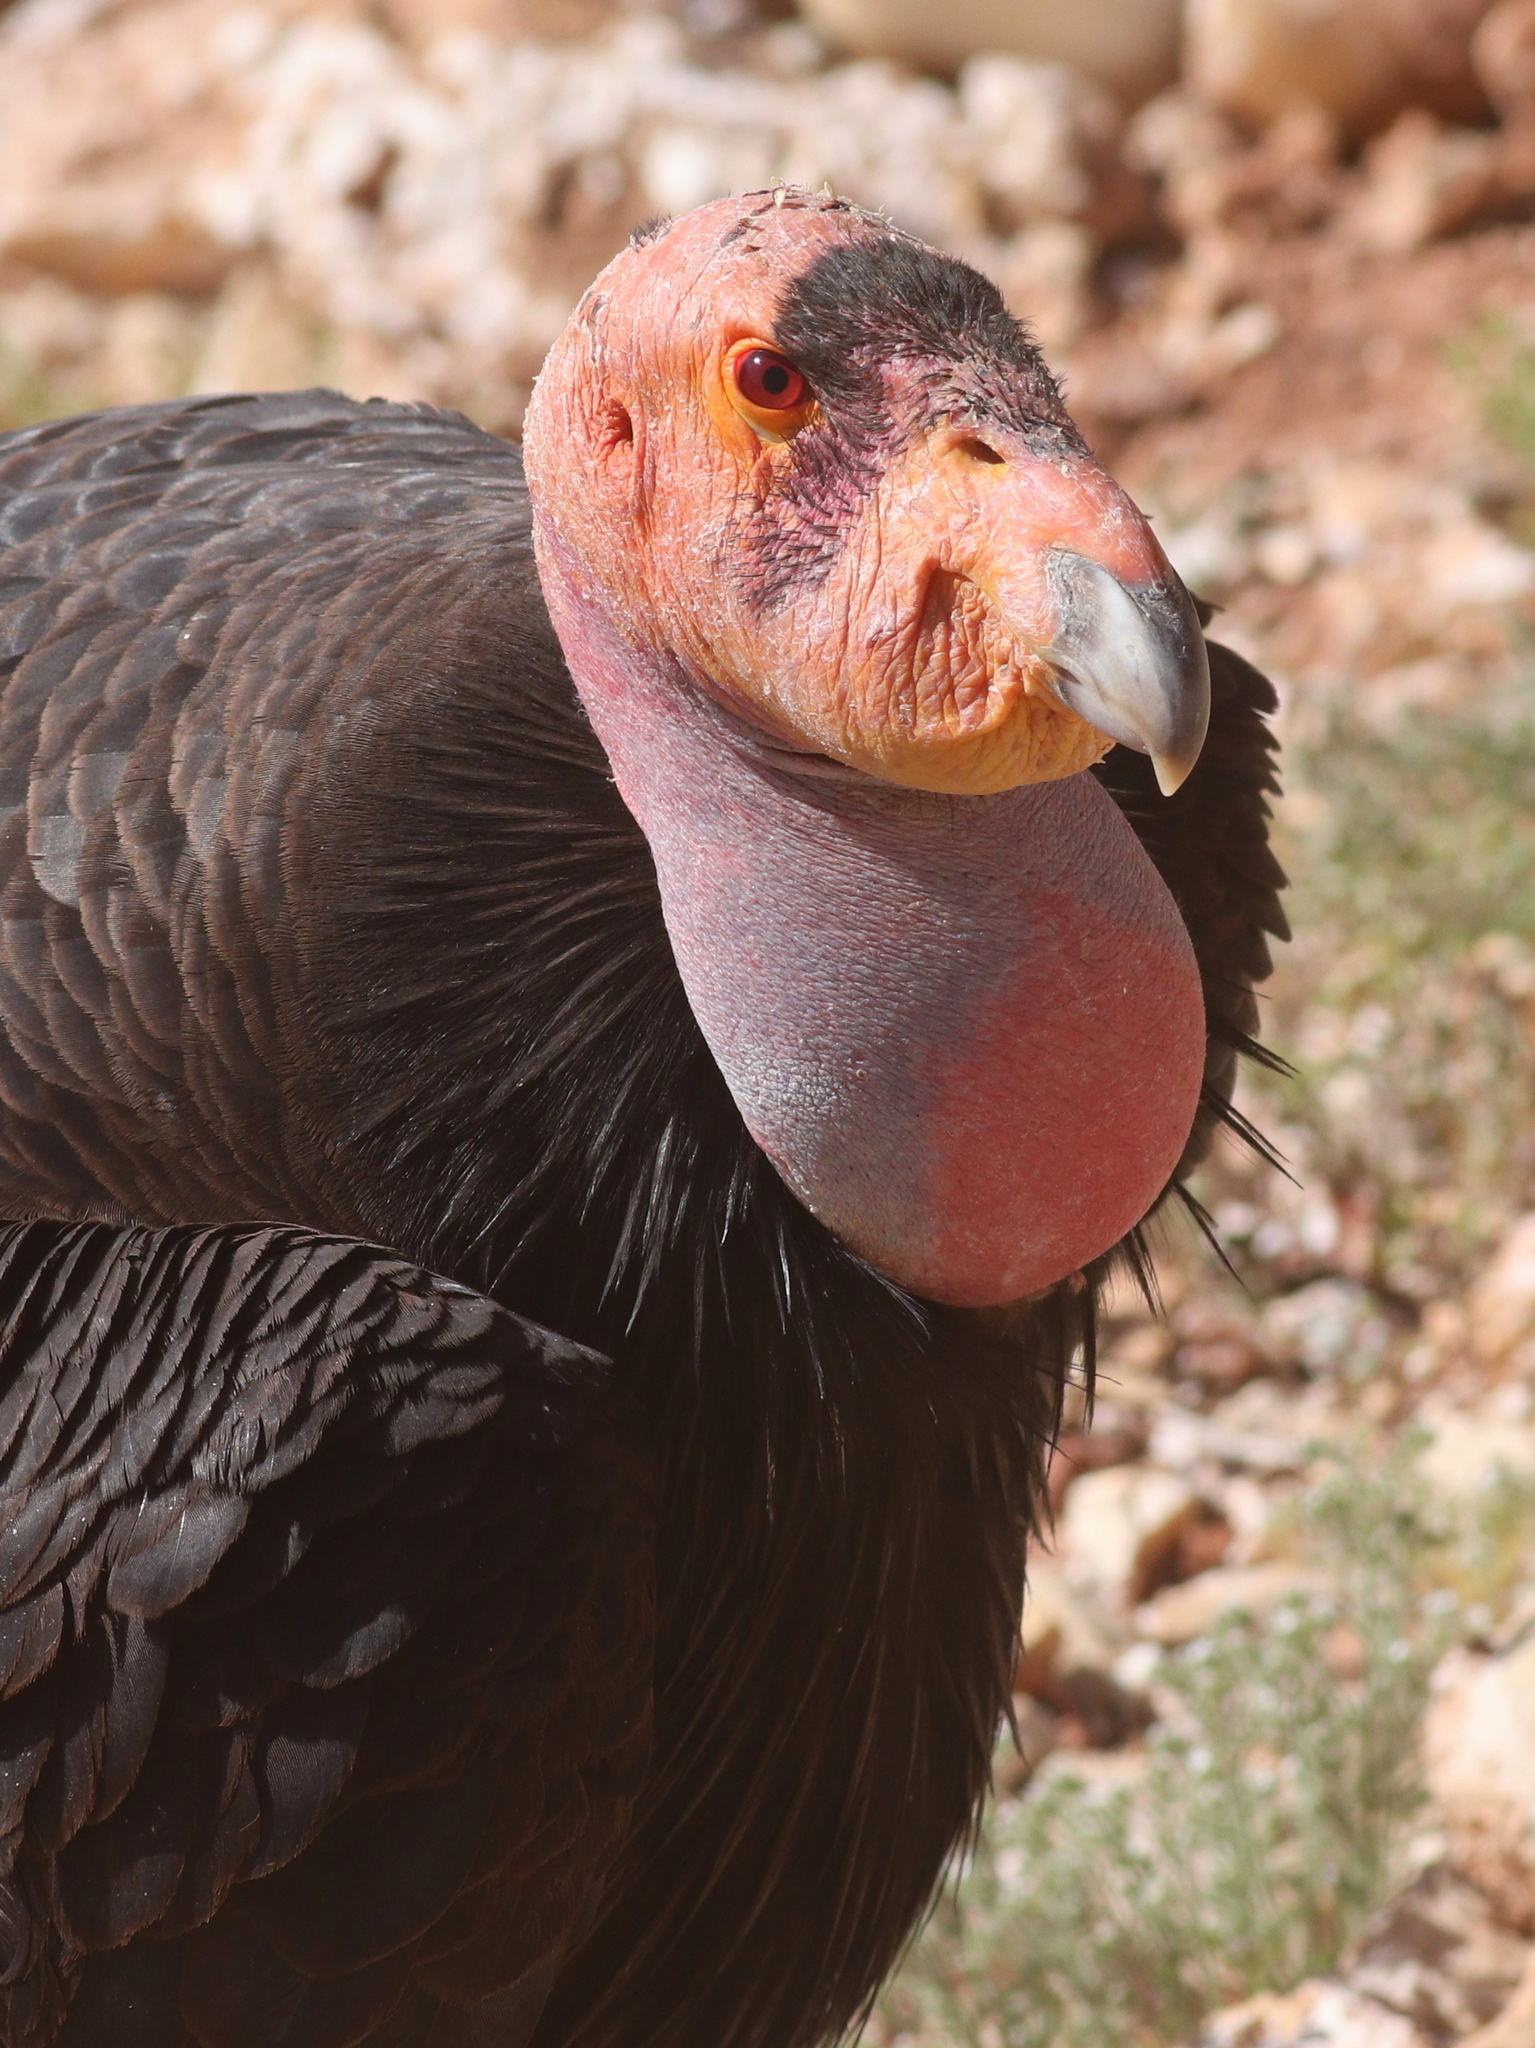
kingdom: Animalia
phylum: Chordata
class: Aves
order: Accipitriformes
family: Cathartidae
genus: Gymnogyps
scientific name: Gymnogyps californianus
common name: California condor
